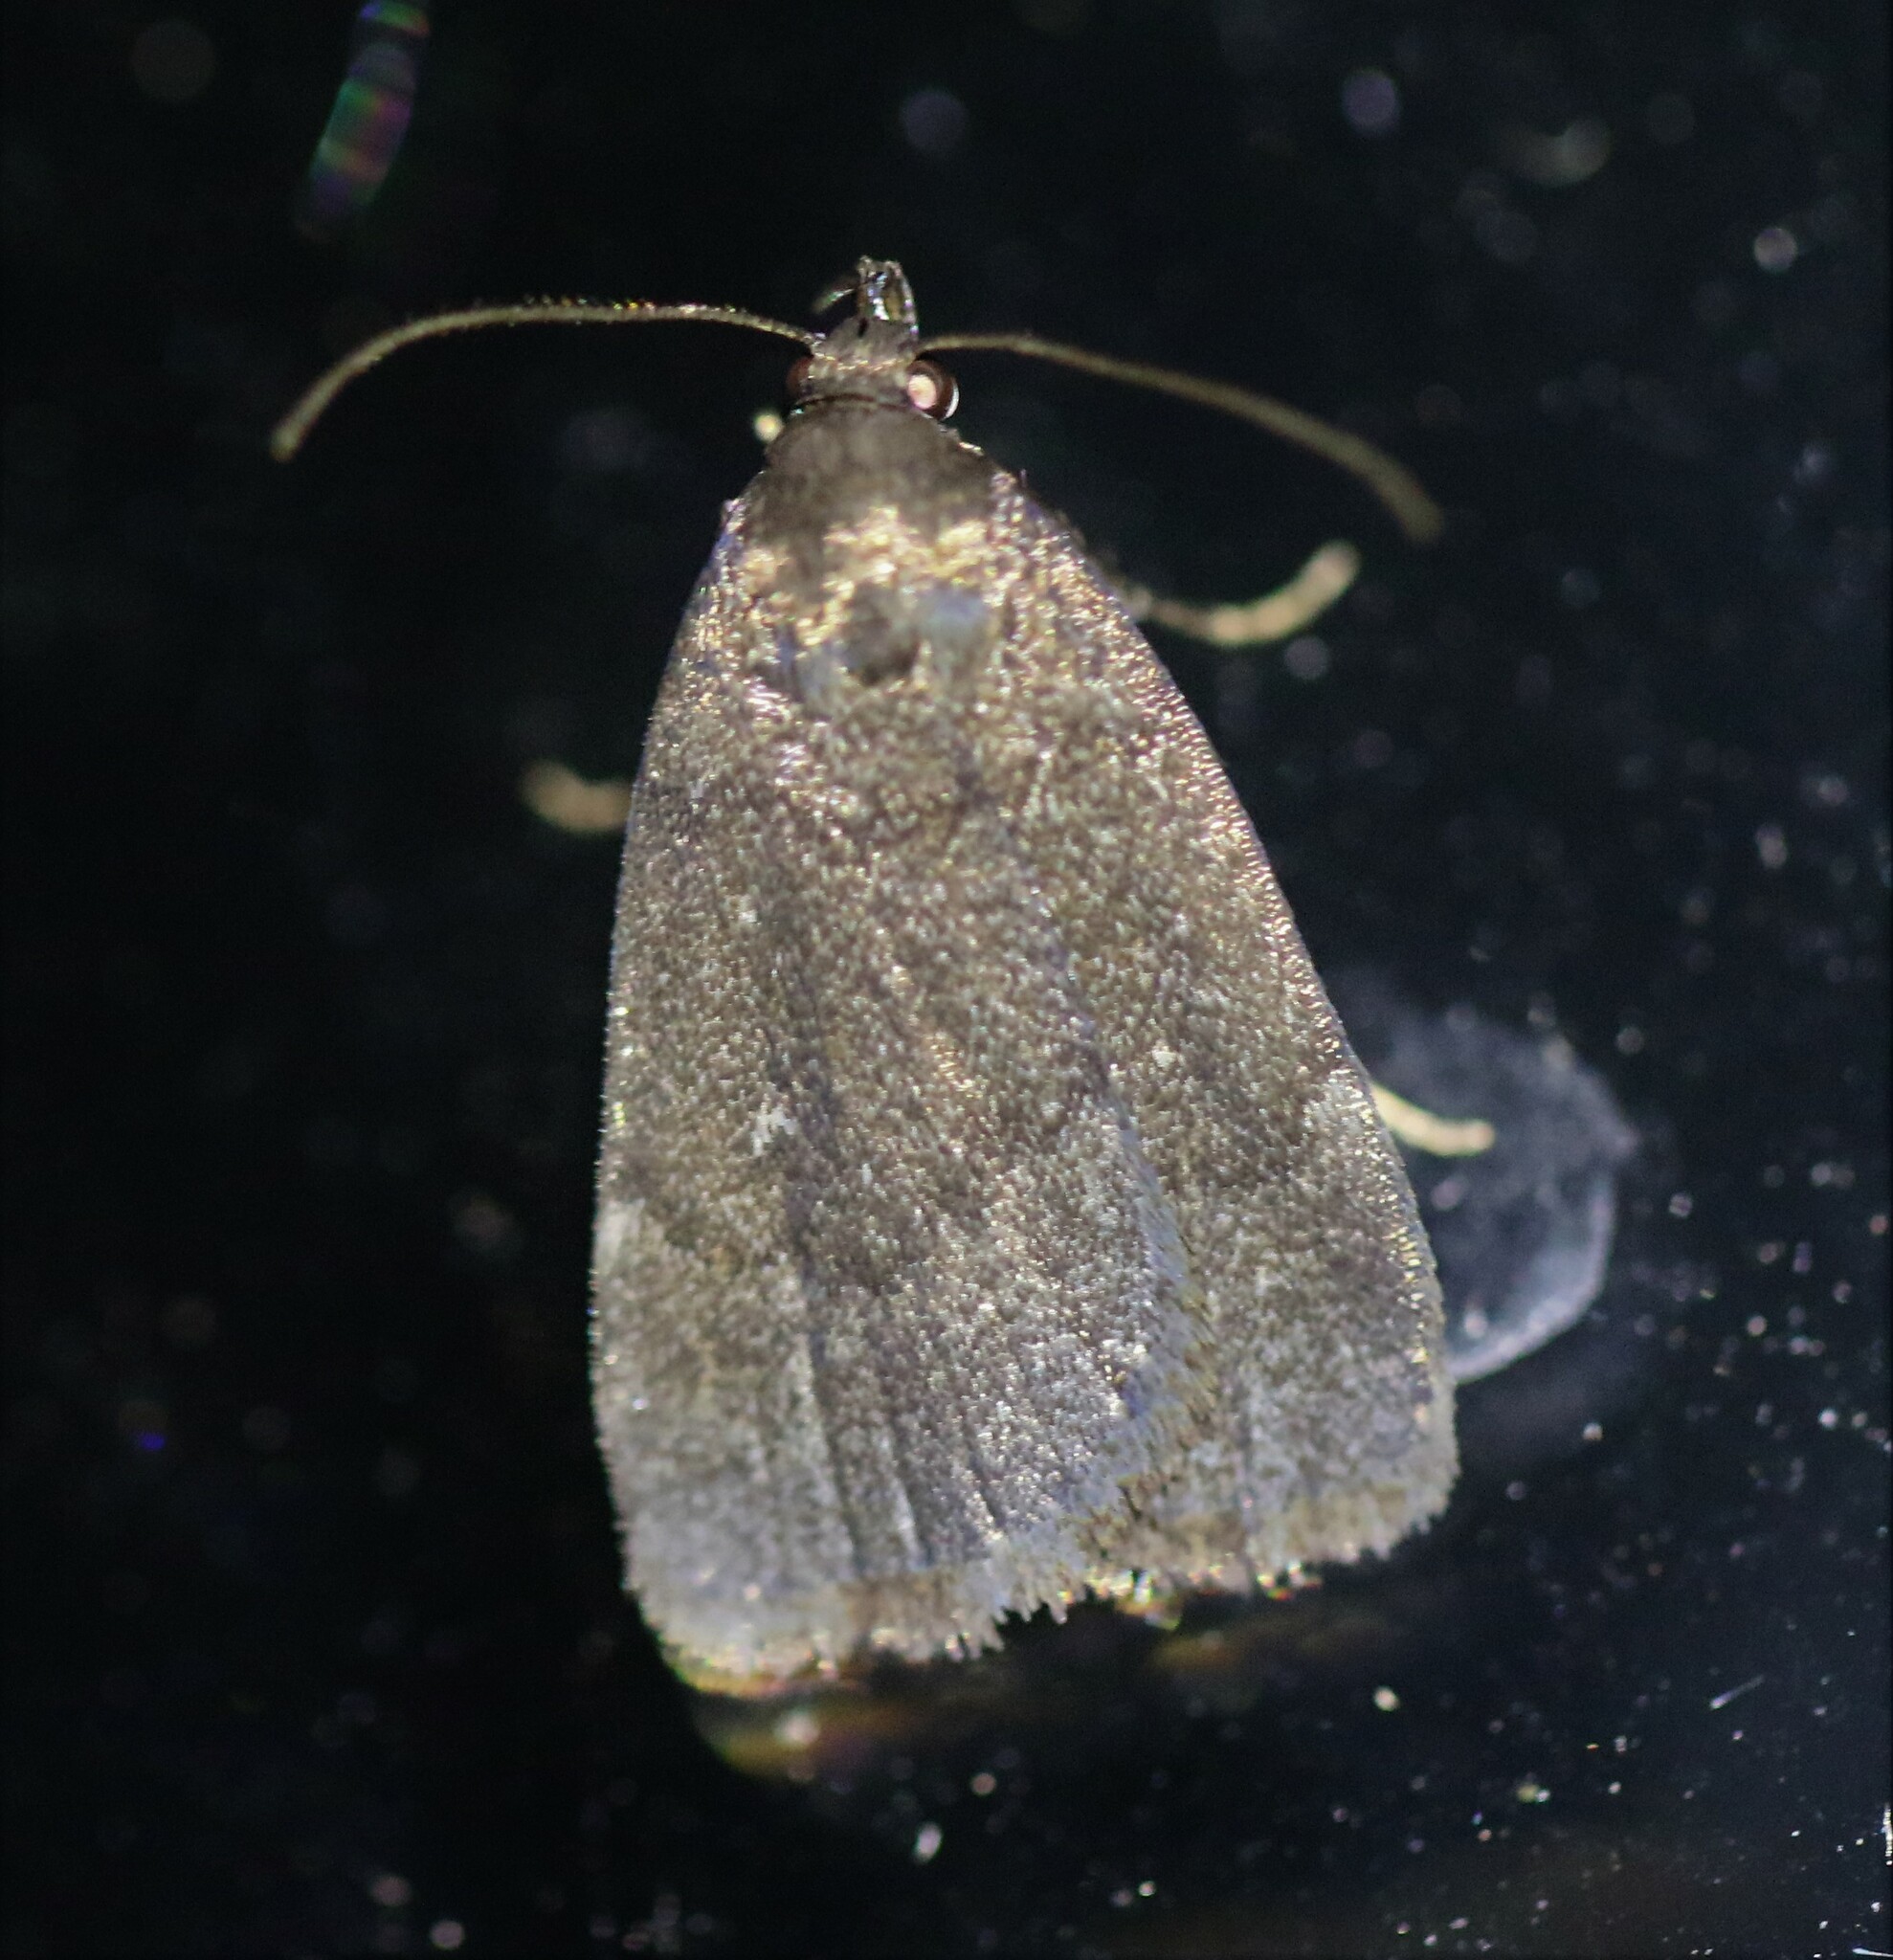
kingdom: Animalia
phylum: Arthropoda
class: Insecta
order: Lepidoptera
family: Erebidae
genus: Idia
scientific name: Idia rotundalis
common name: Rotund idia moth
